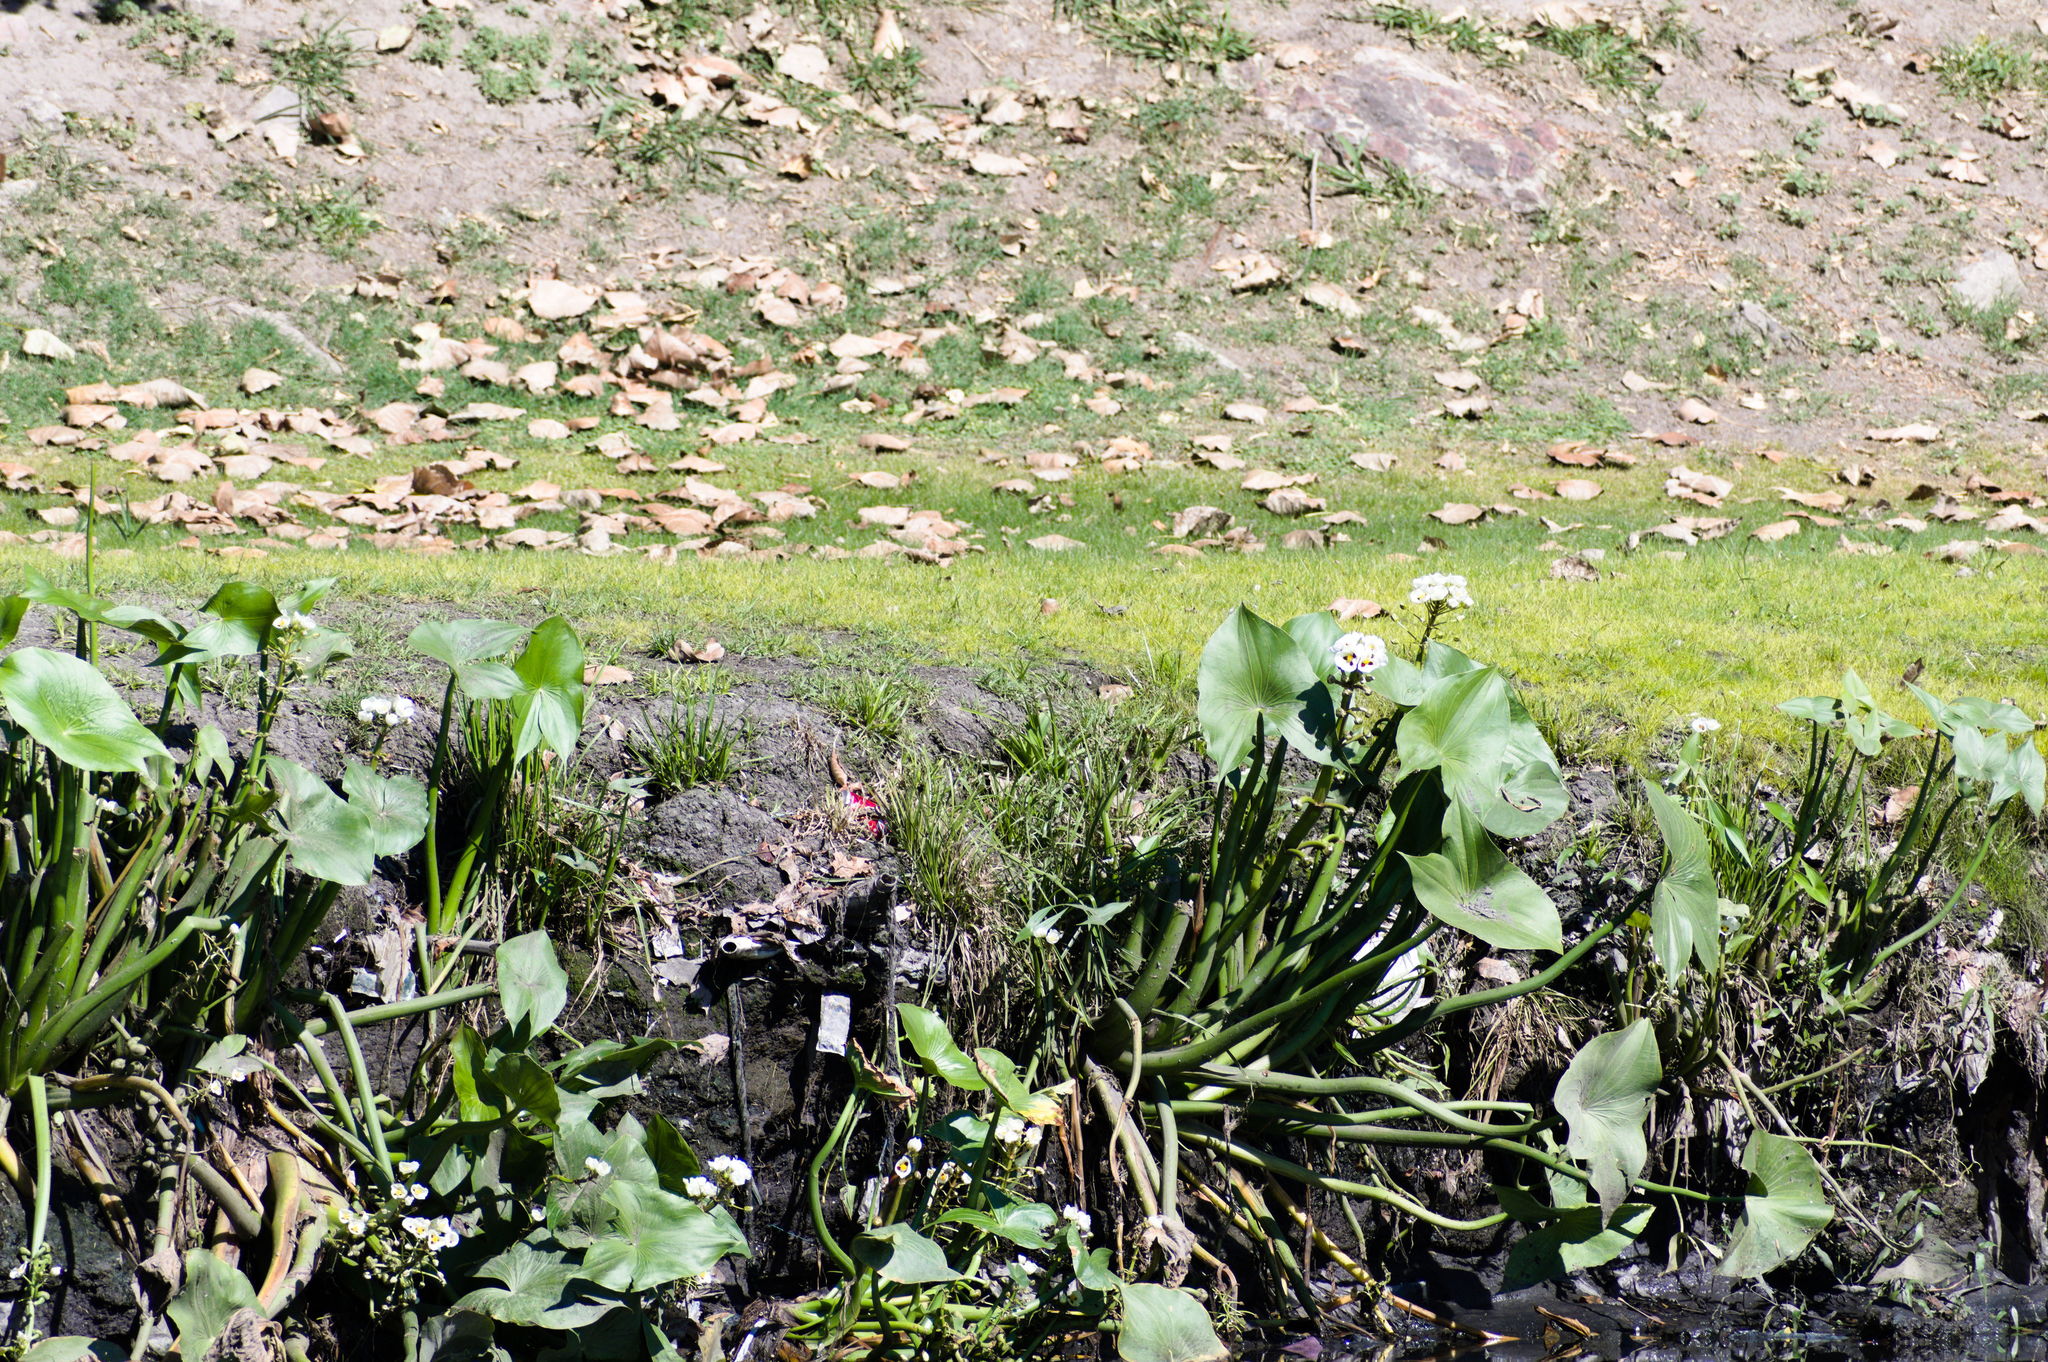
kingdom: Plantae
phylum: Tracheophyta
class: Liliopsida
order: Alismatales
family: Alismataceae
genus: Sagittaria
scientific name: Sagittaria montevidensis
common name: Giant arrowhead
